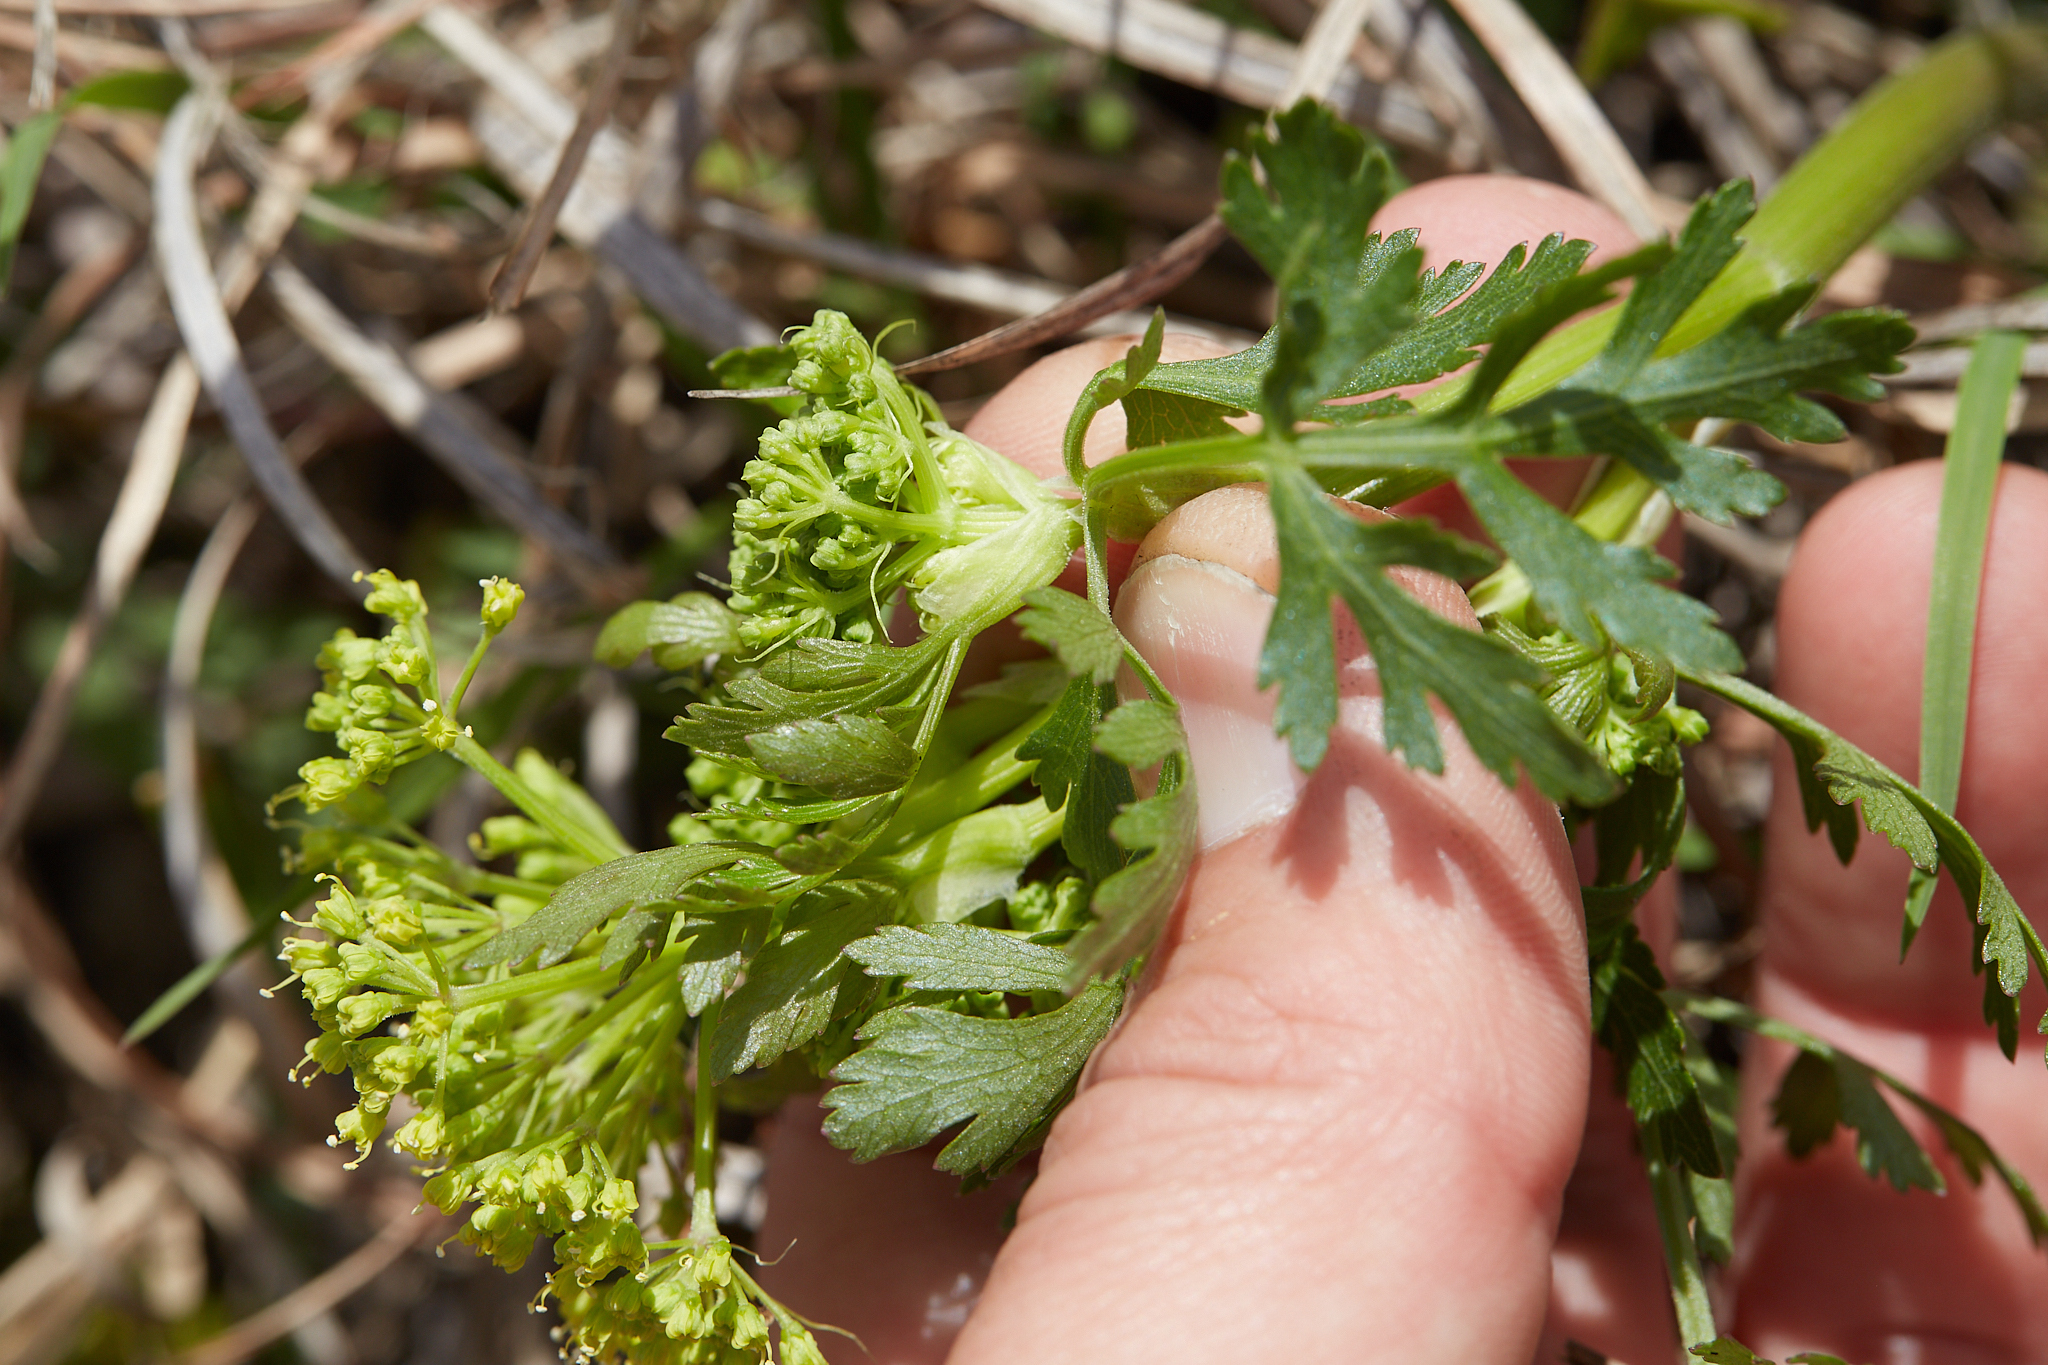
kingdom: Plantae
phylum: Tracheophyta
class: Magnoliopsida
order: Apiales
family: Apiaceae
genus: Polytaenia
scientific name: Polytaenia nuttallii
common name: Prairie-parsley
